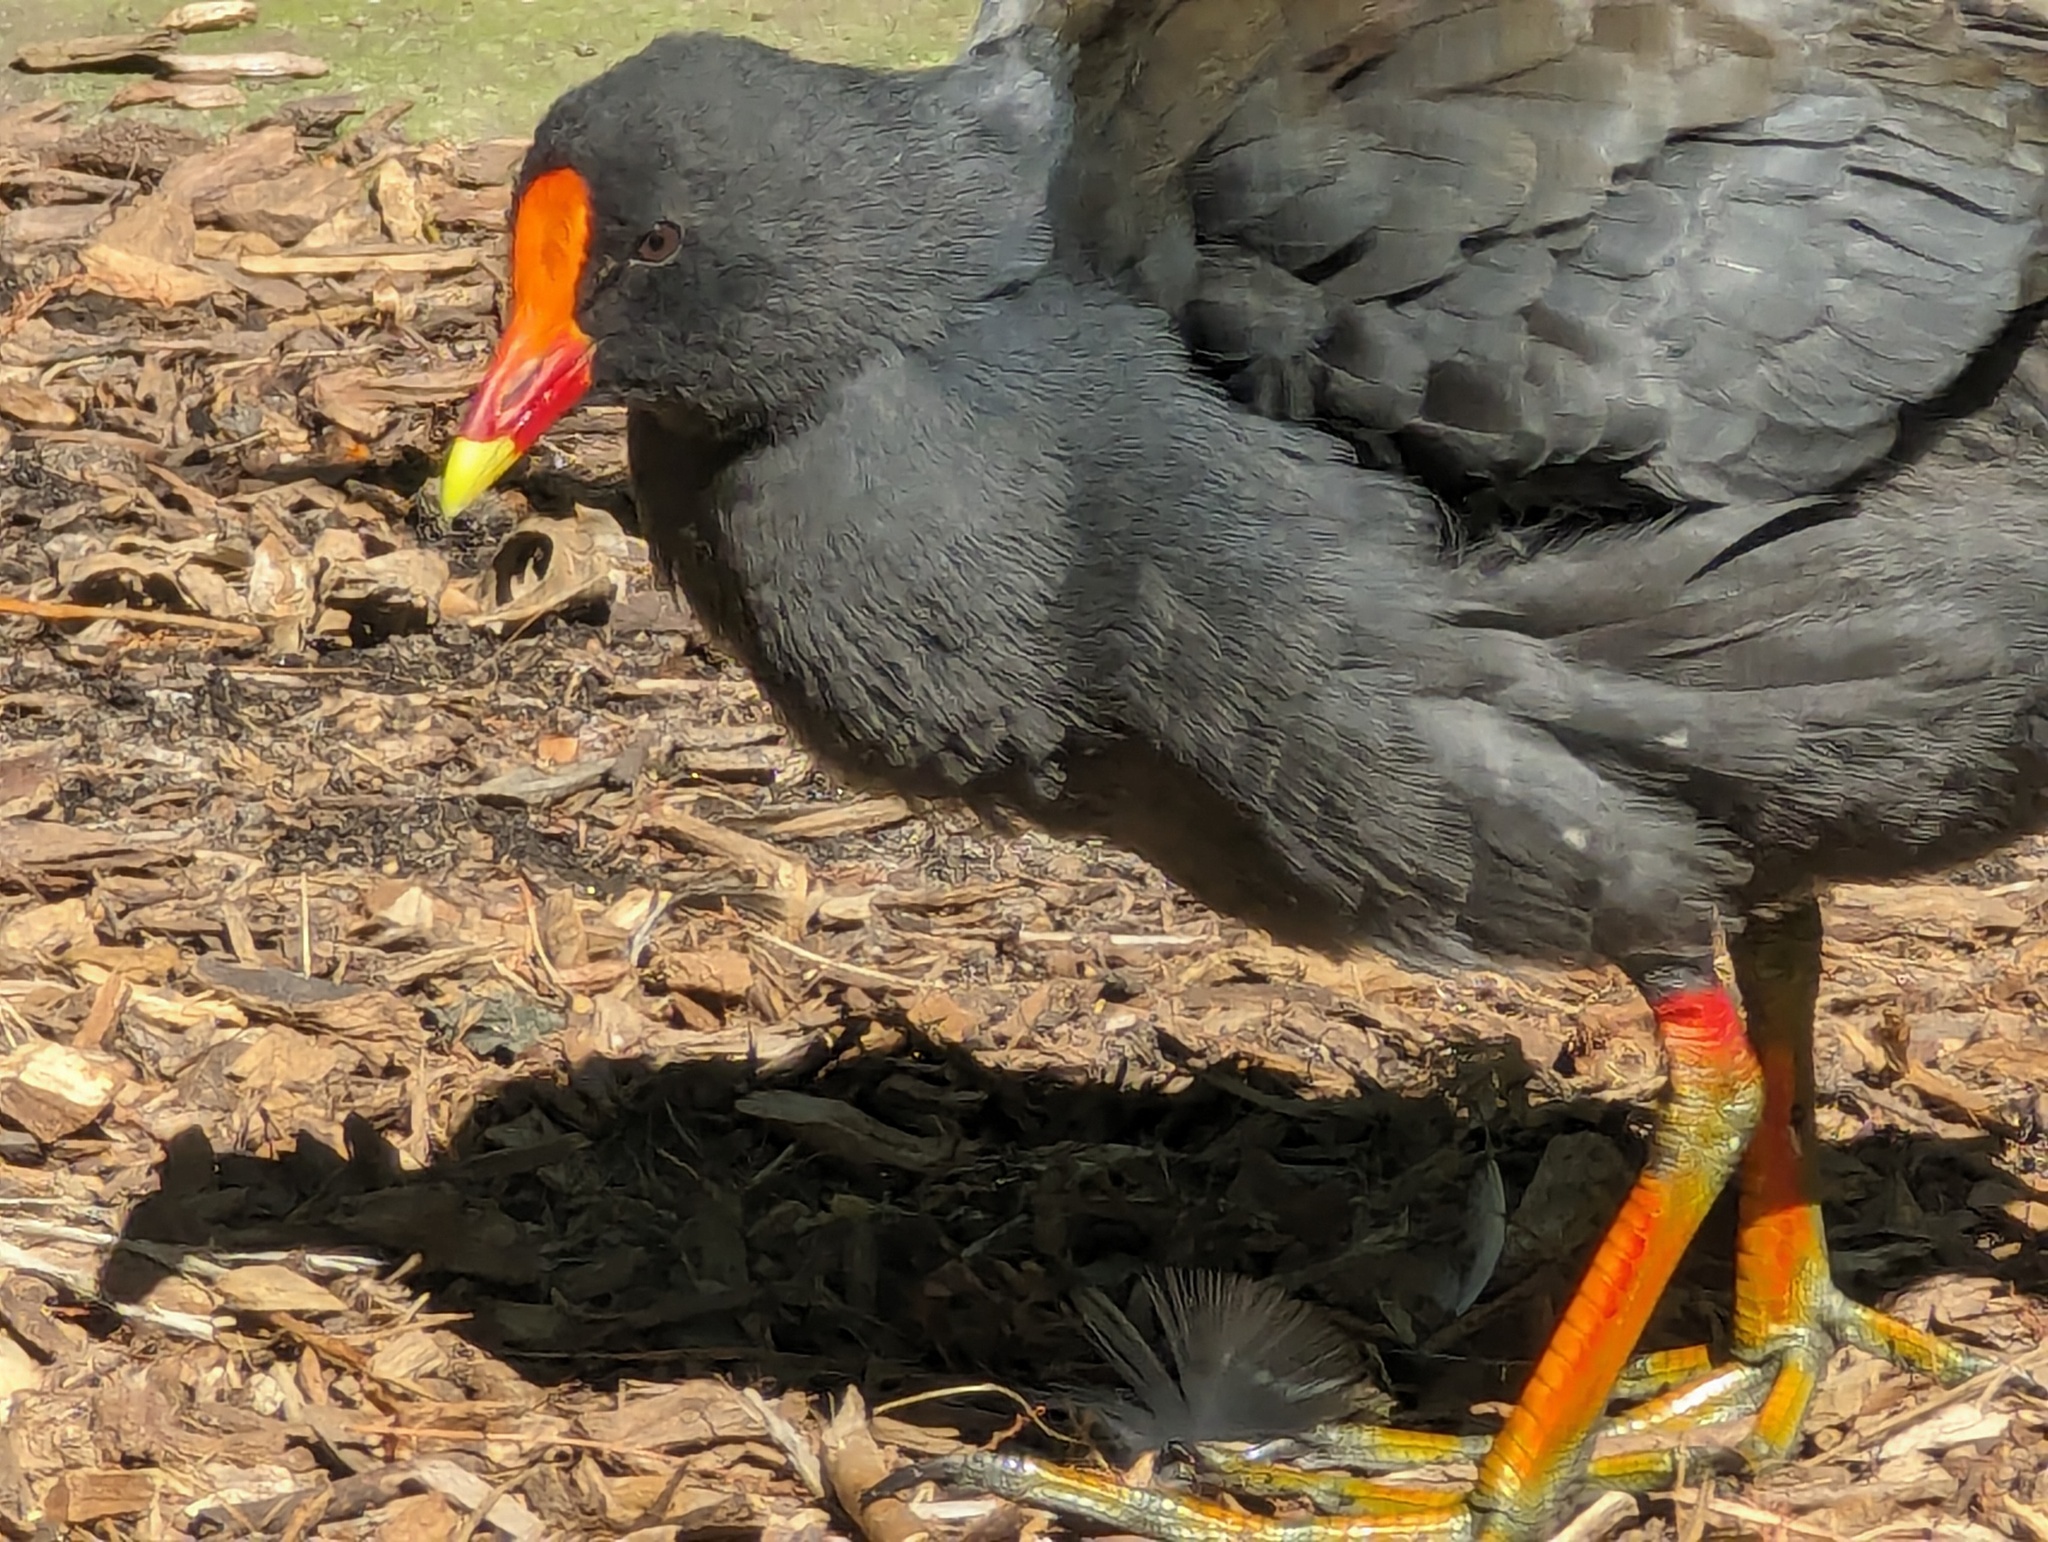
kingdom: Animalia
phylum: Chordata
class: Aves
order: Gruiformes
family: Rallidae
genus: Gallinula
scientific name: Gallinula tenebrosa
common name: Dusky moorhen
